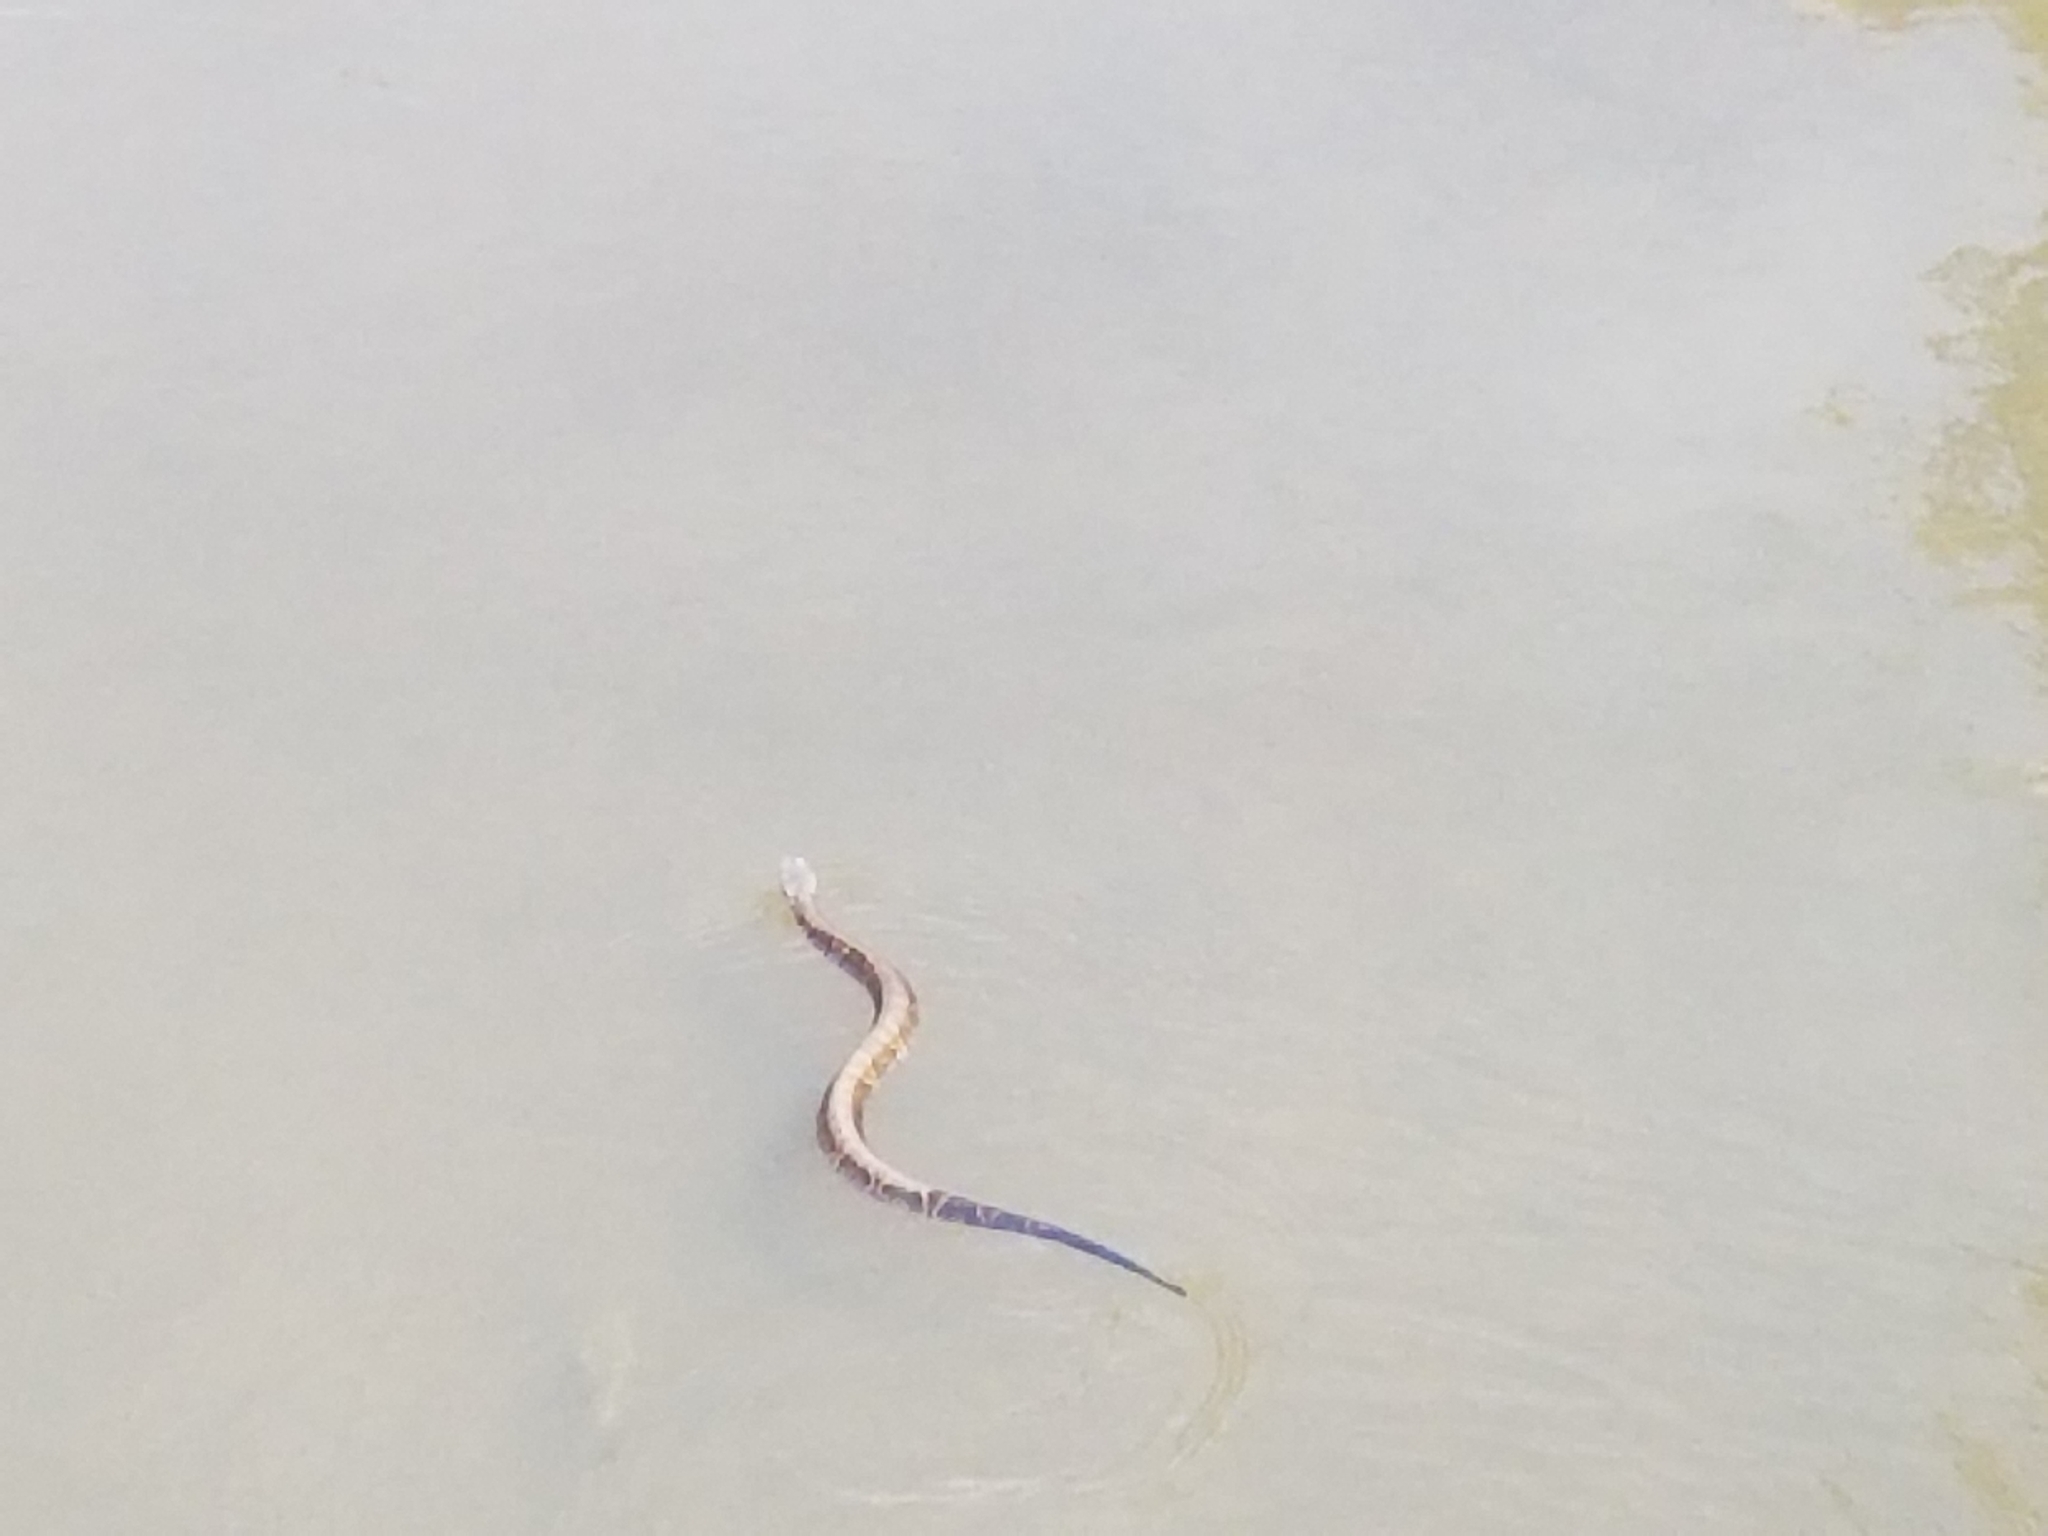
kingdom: Animalia
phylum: Chordata
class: Squamata
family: Viperidae
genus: Agkistrodon
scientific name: Agkistrodon piscivorus
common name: Cottonmouth
